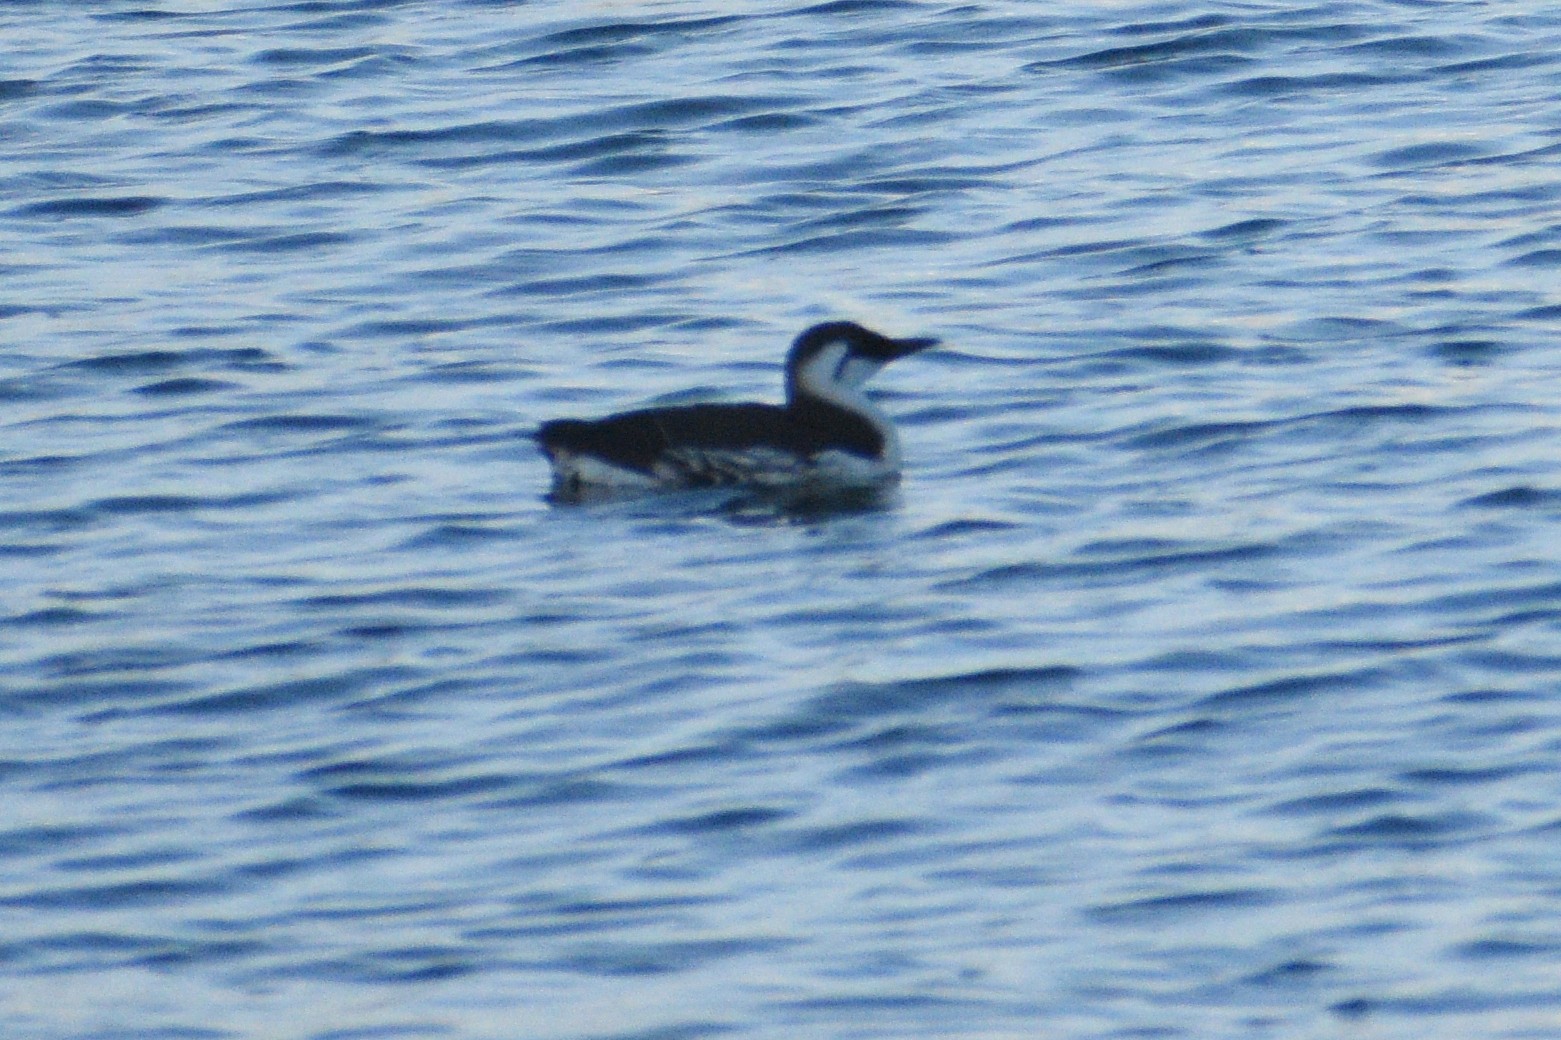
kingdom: Animalia
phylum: Chordata
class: Aves
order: Charadriiformes
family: Alcidae
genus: Uria
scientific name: Uria aalge
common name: Common murre
